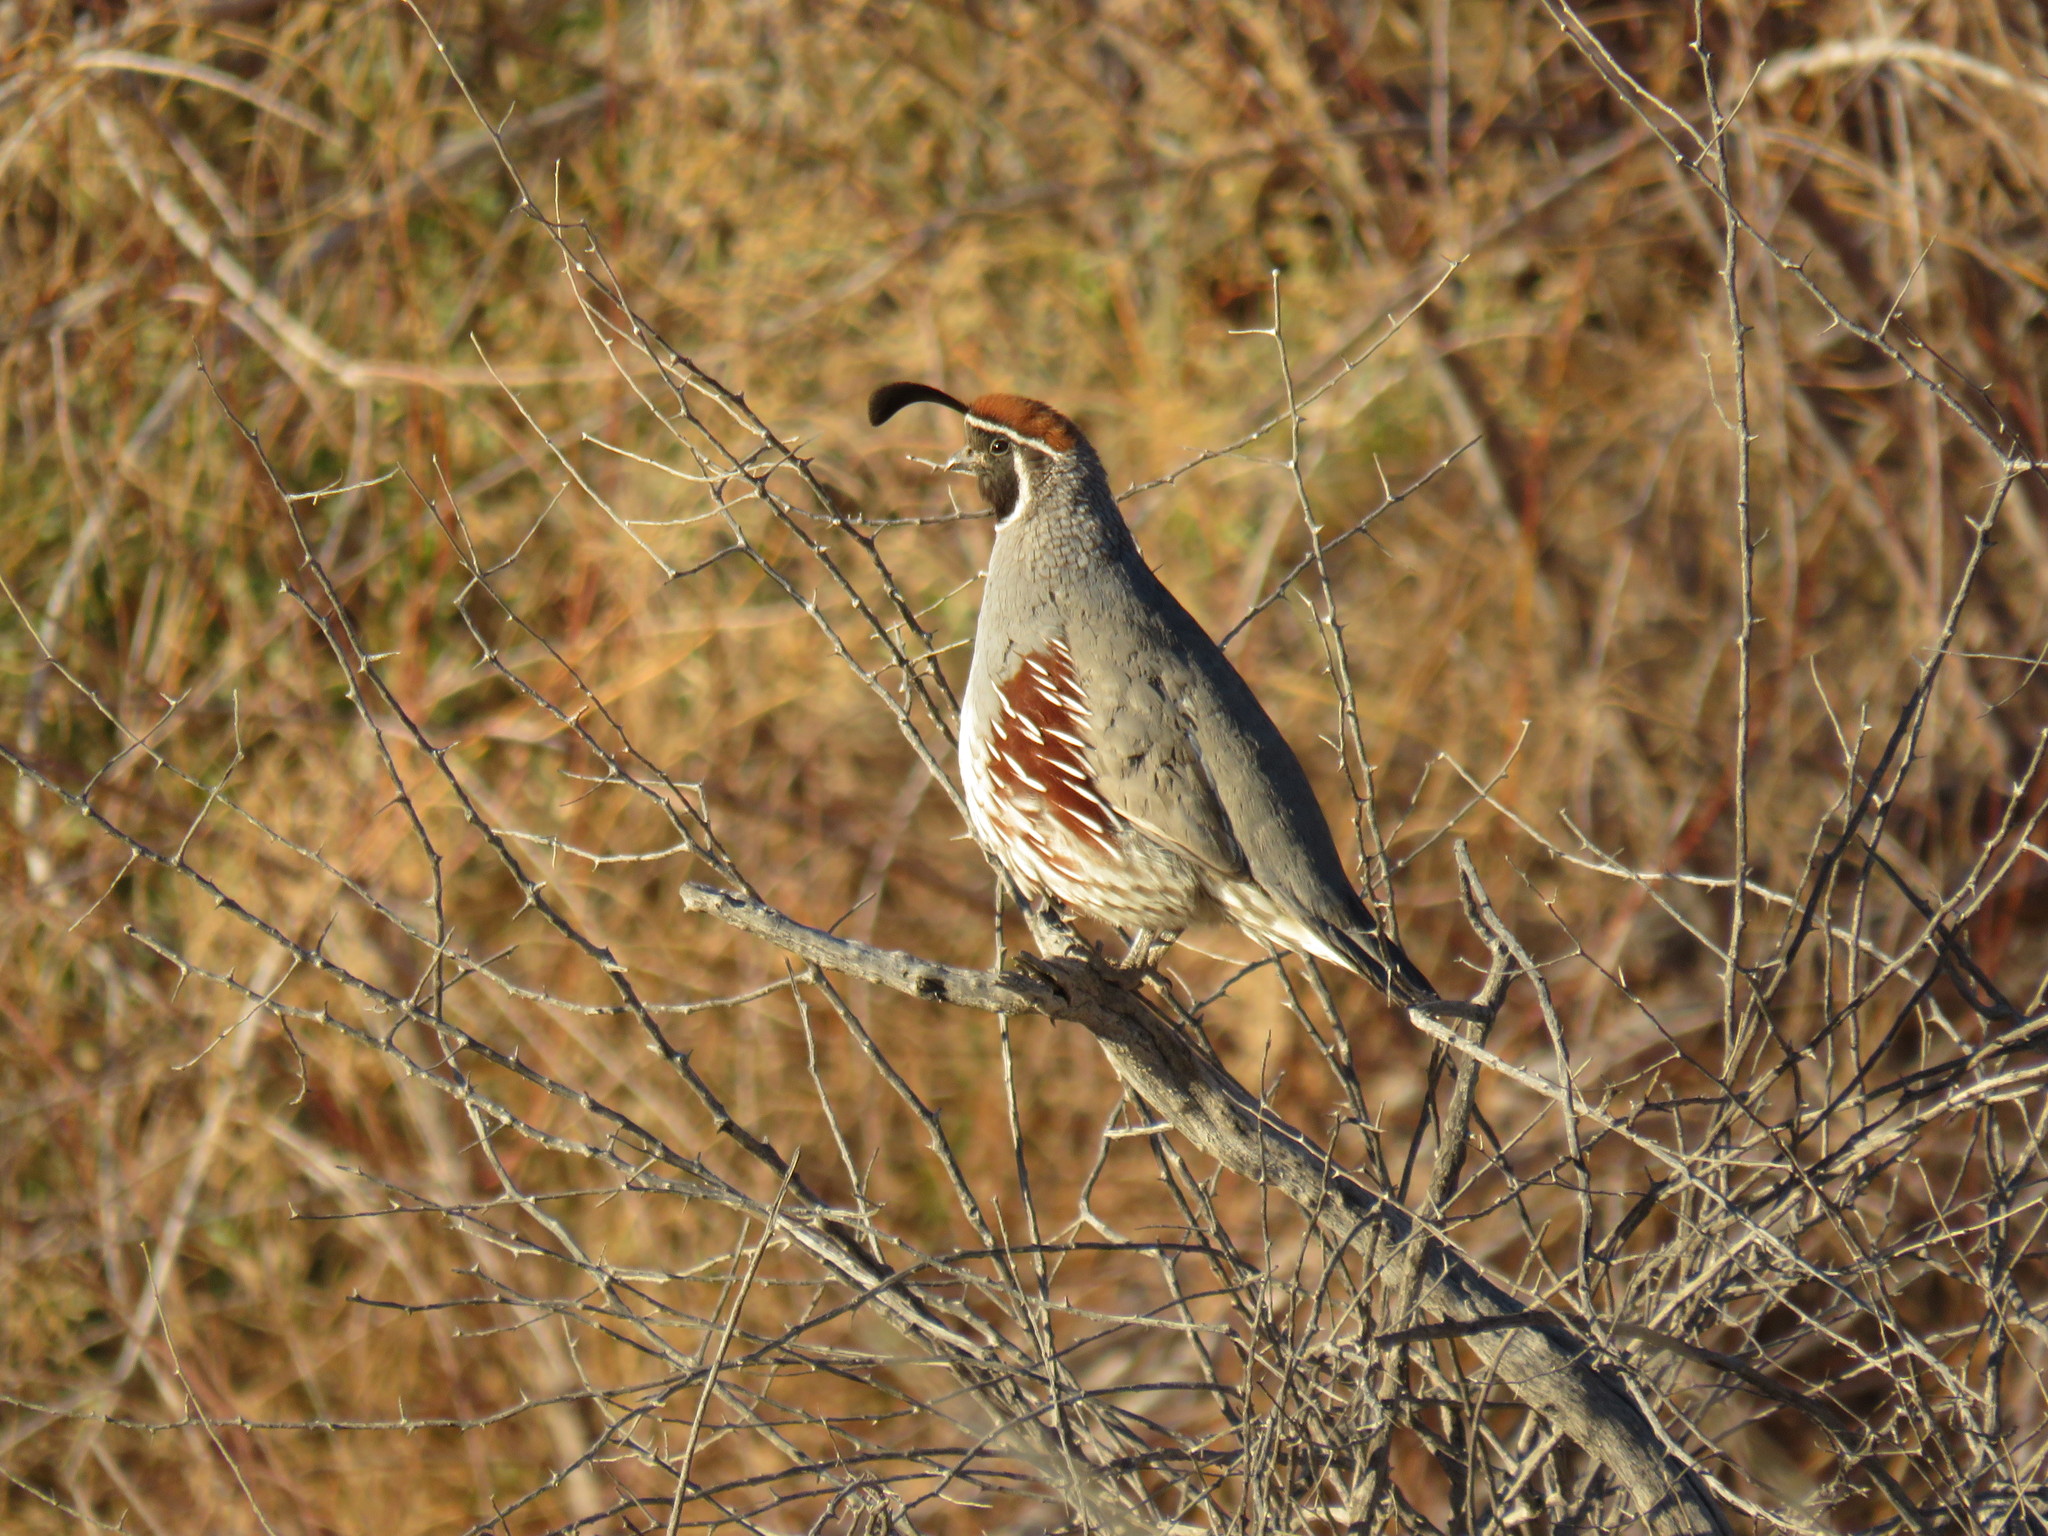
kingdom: Animalia
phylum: Chordata
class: Aves
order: Galliformes
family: Odontophoridae
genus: Callipepla
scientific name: Callipepla gambelii
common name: Gambel's quail
